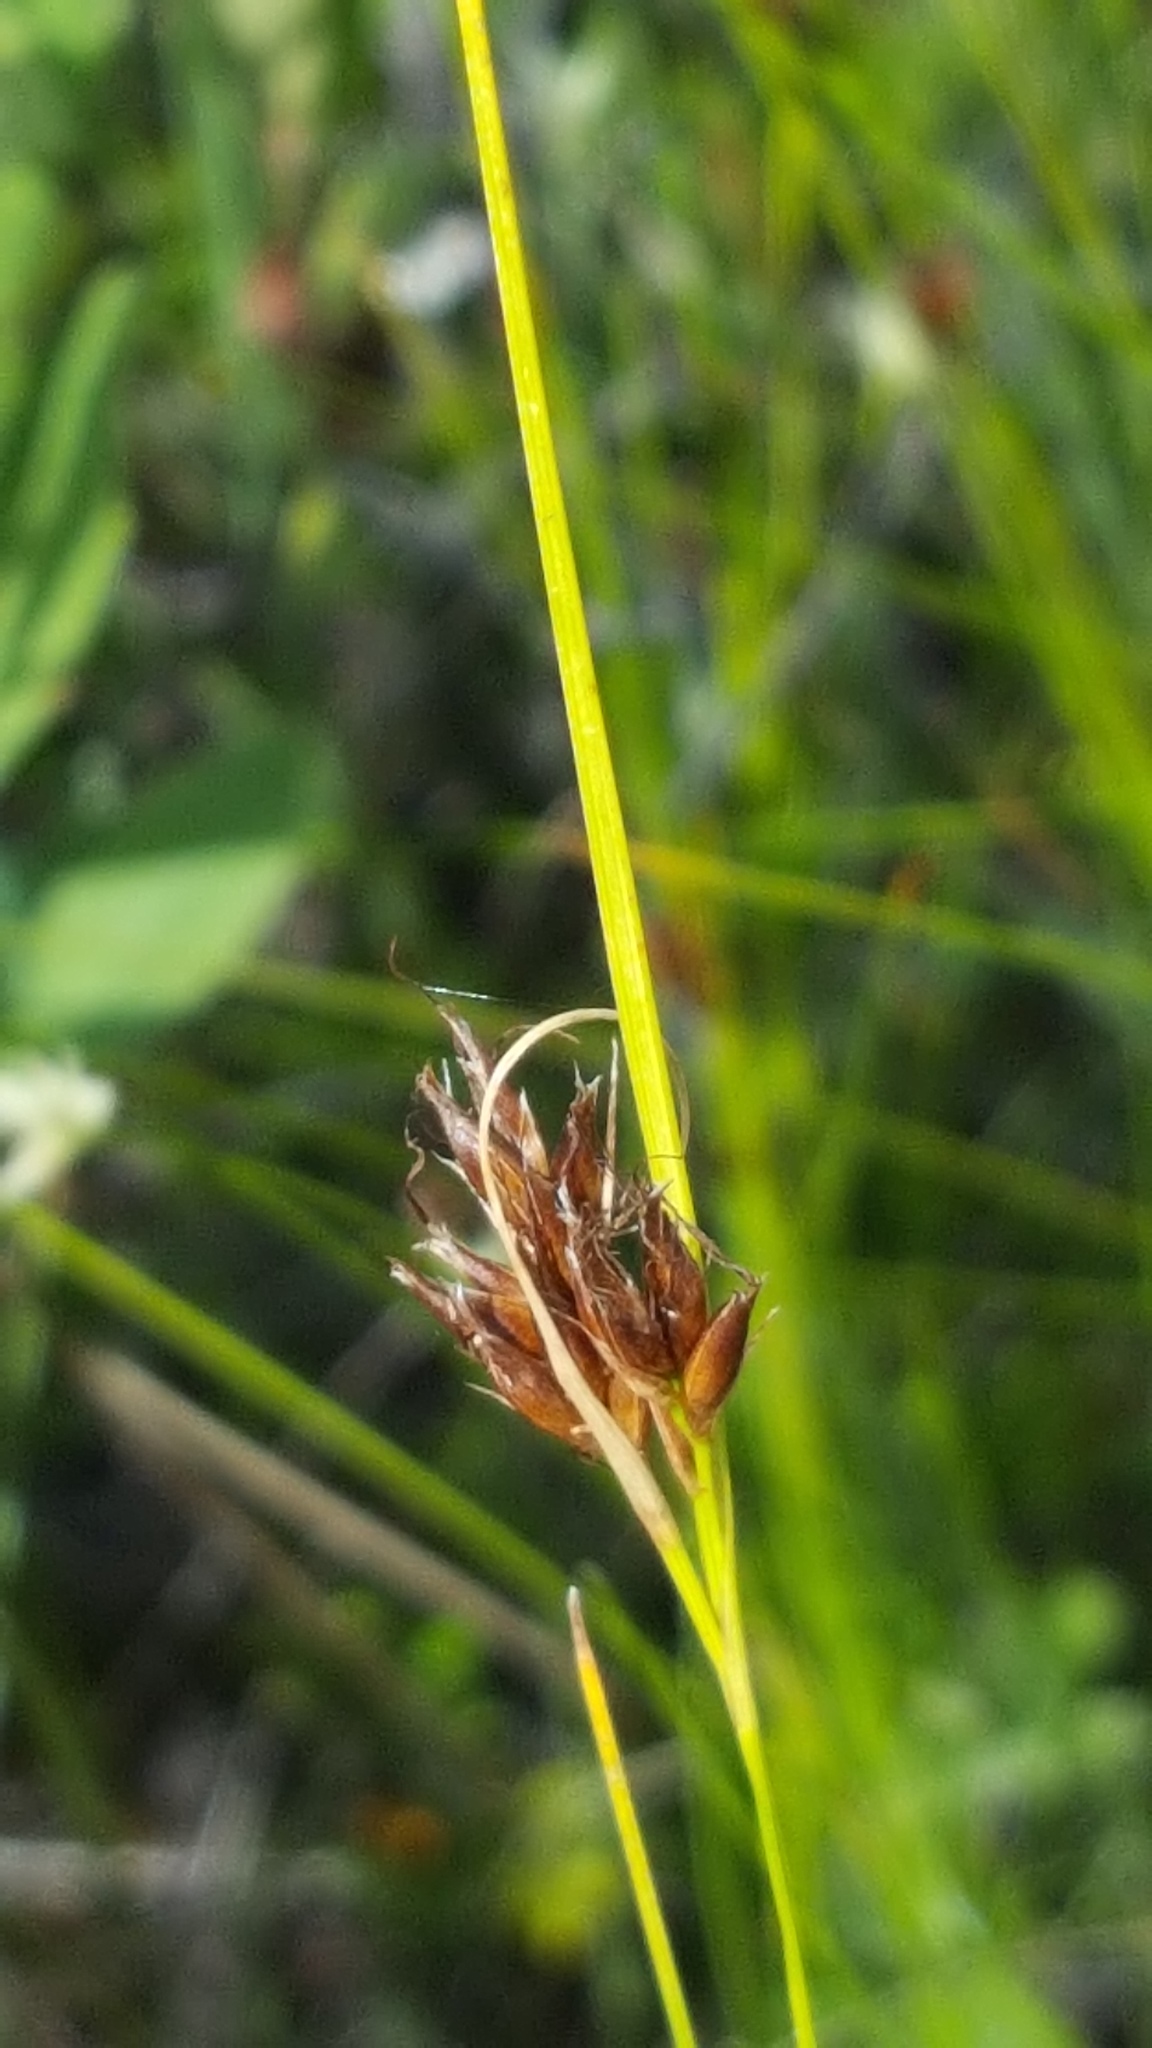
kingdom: Plantae
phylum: Tracheophyta
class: Liliopsida
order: Poales
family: Cyperaceae
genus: Rhynchospora
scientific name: Rhynchospora fusca
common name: Brown beak-sedge
